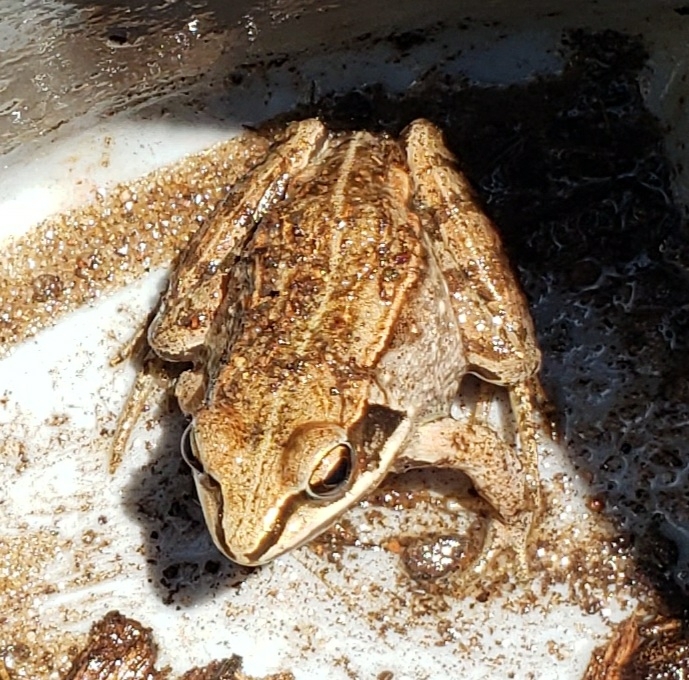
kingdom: Animalia
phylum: Chordata
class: Amphibia
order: Anura
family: Ranidae
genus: Lithobates
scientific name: Lithobates sylvaticus
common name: Wood frog
